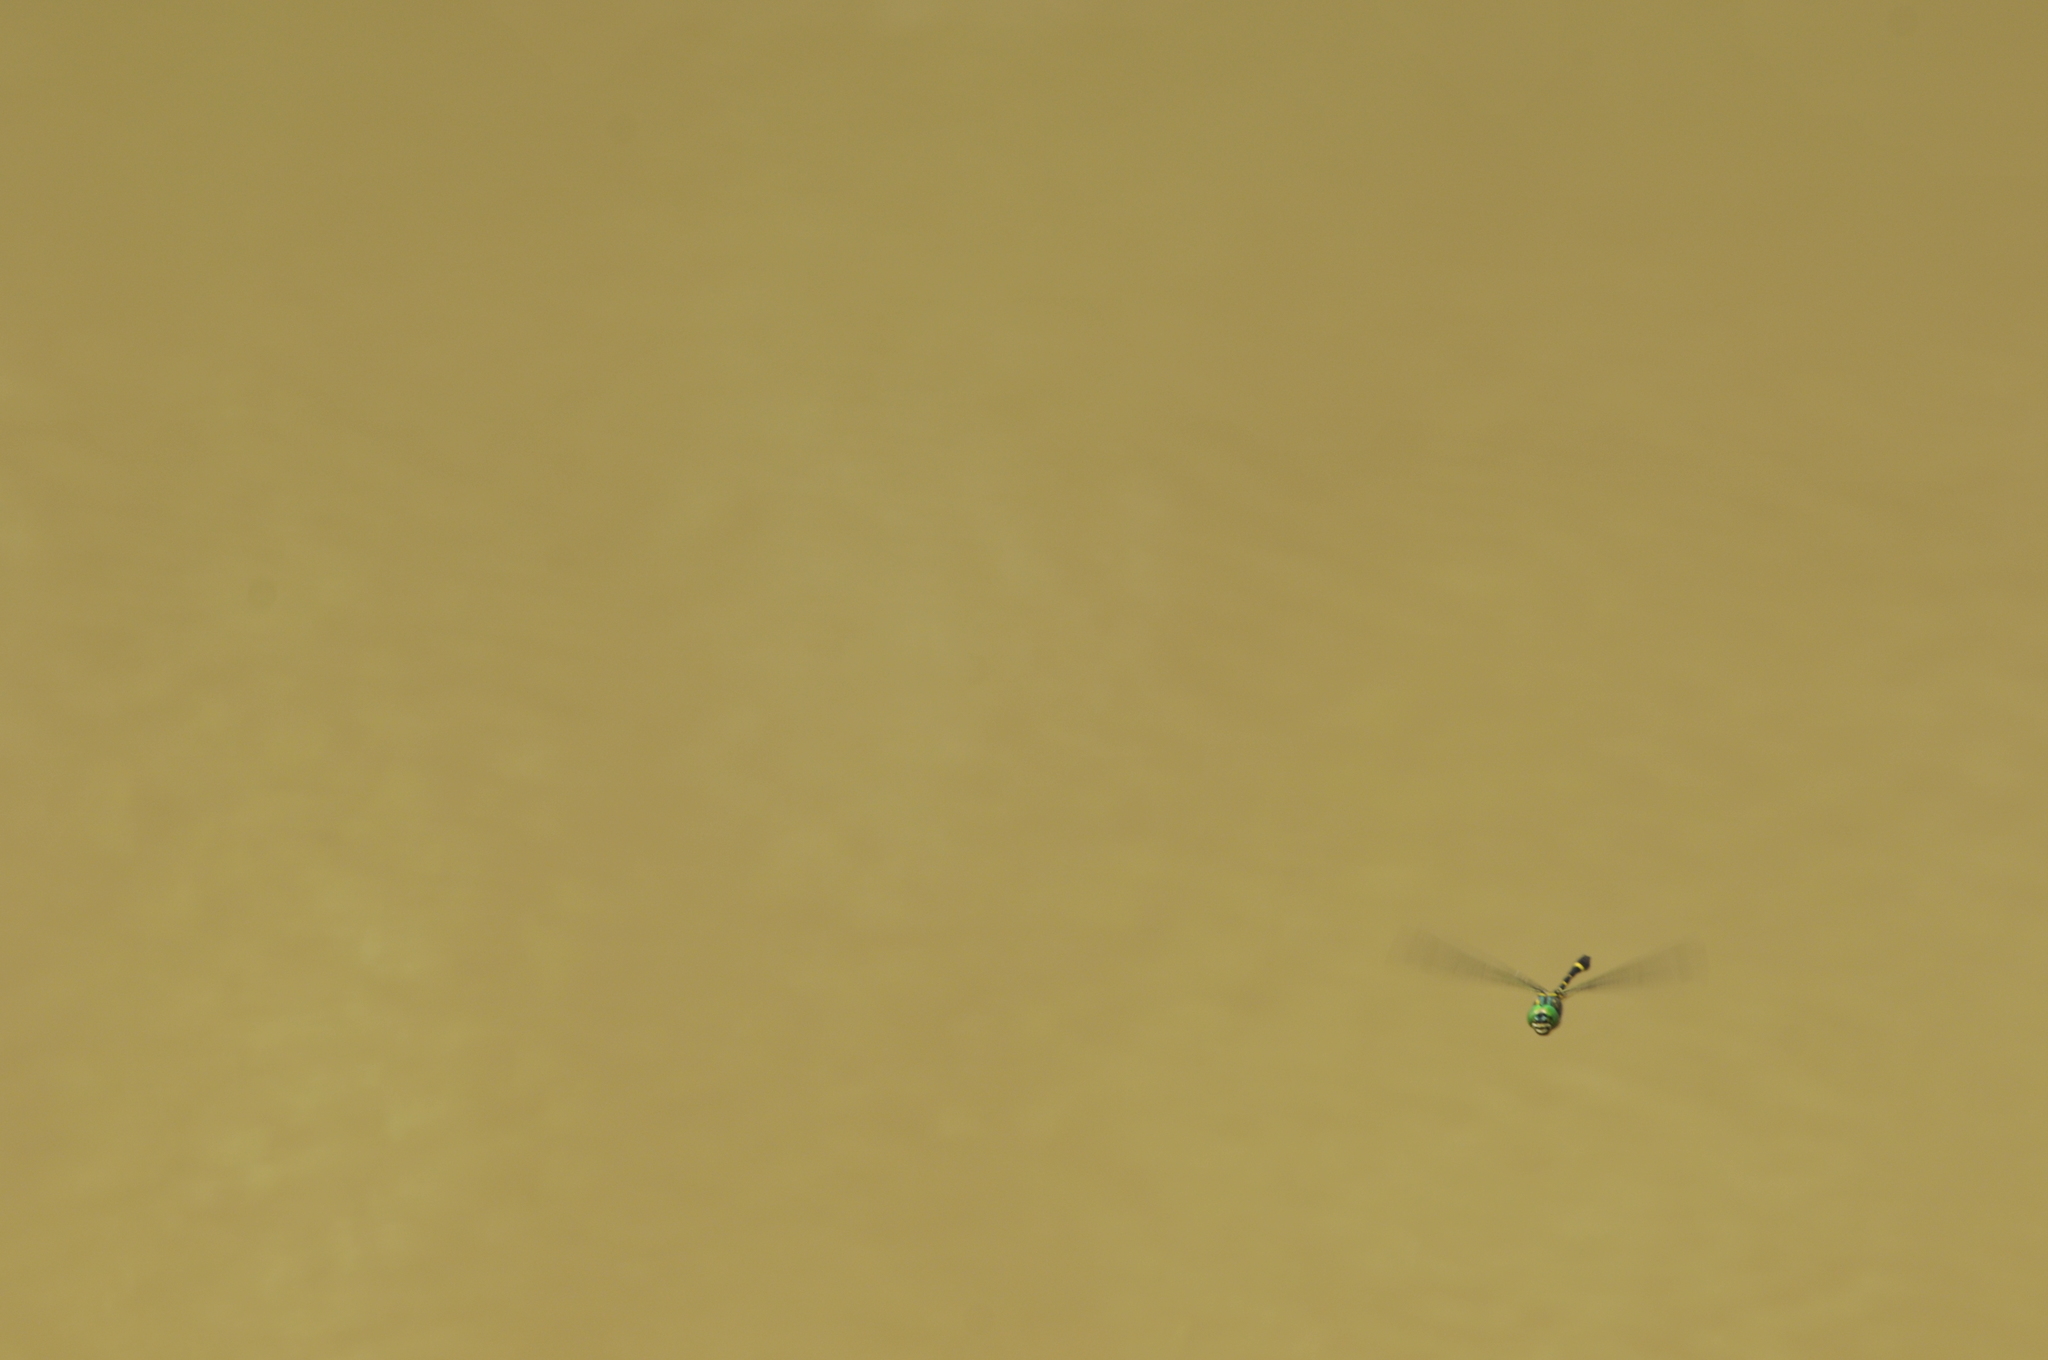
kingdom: Animalia
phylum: Arthropoda
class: Insecta
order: Odonata
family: Macromiidae
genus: Epophthalmia
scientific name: Epophthalmia elegans
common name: Regal pond cruiser
